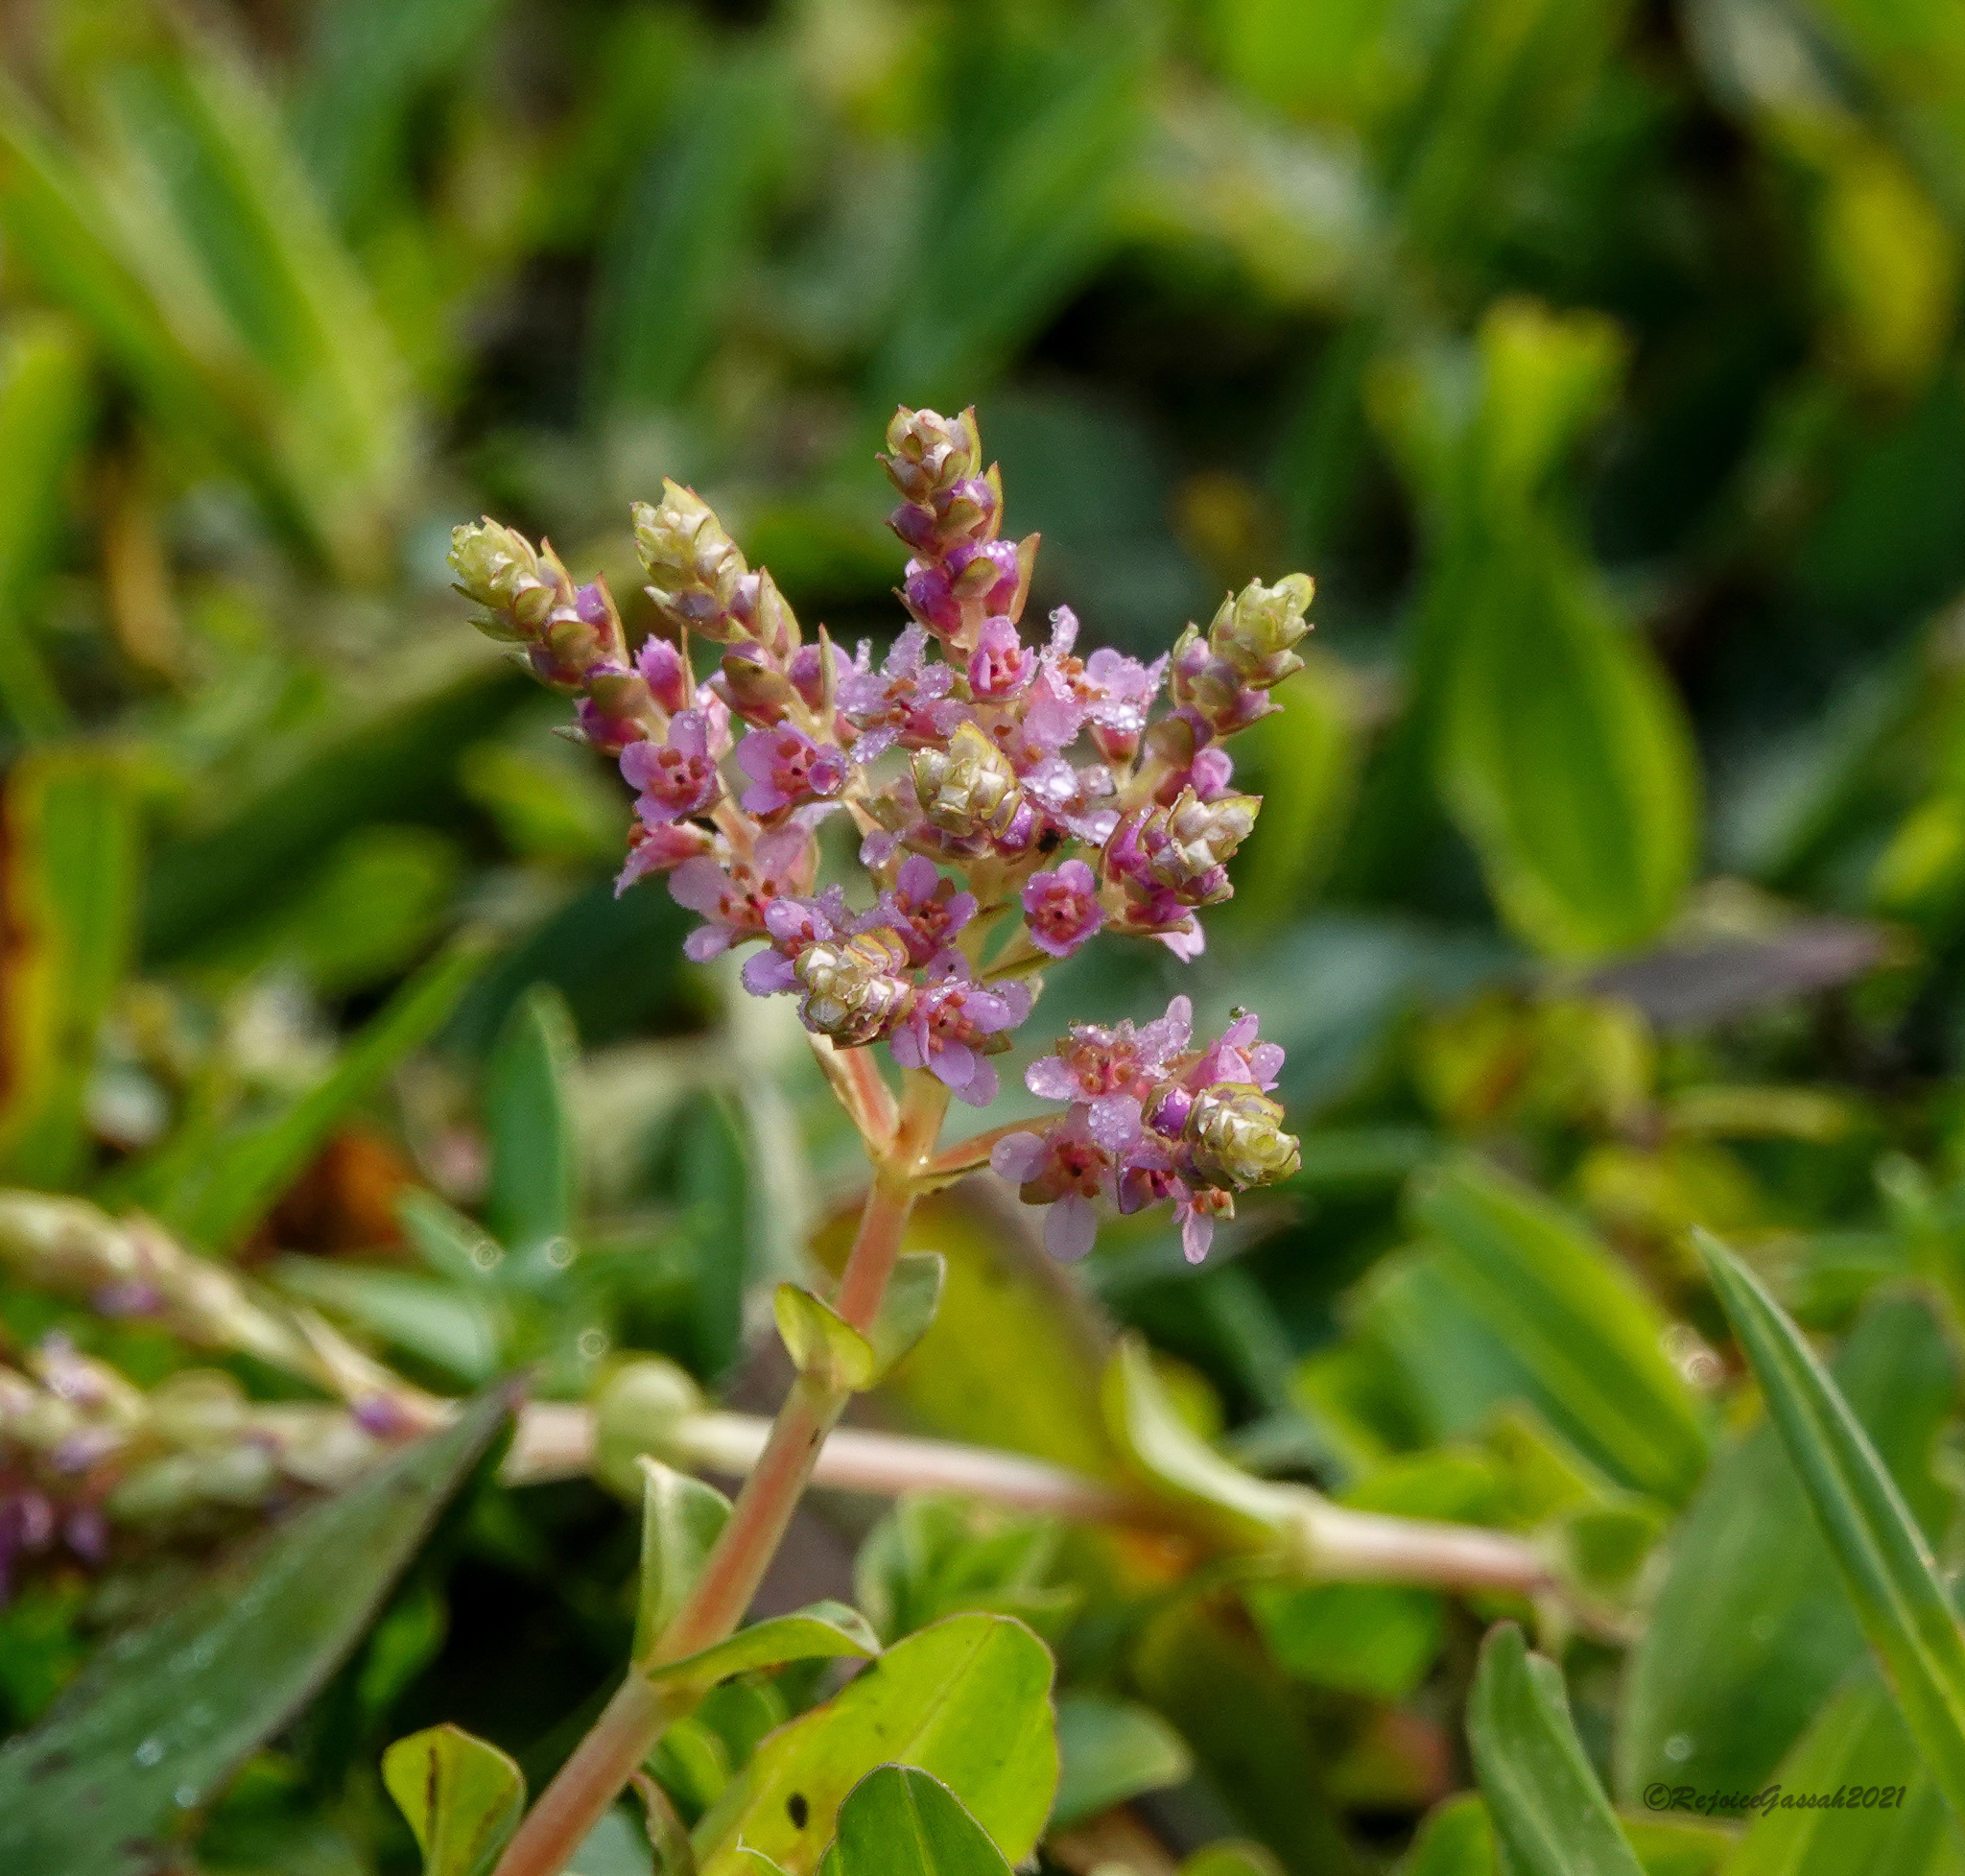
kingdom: Plantae
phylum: Tracheophyta
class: Magnoliopsida
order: Myrtales
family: Lythraceae
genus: Rotala
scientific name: Rotala rotundifolia
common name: Roundleaf toothcup
